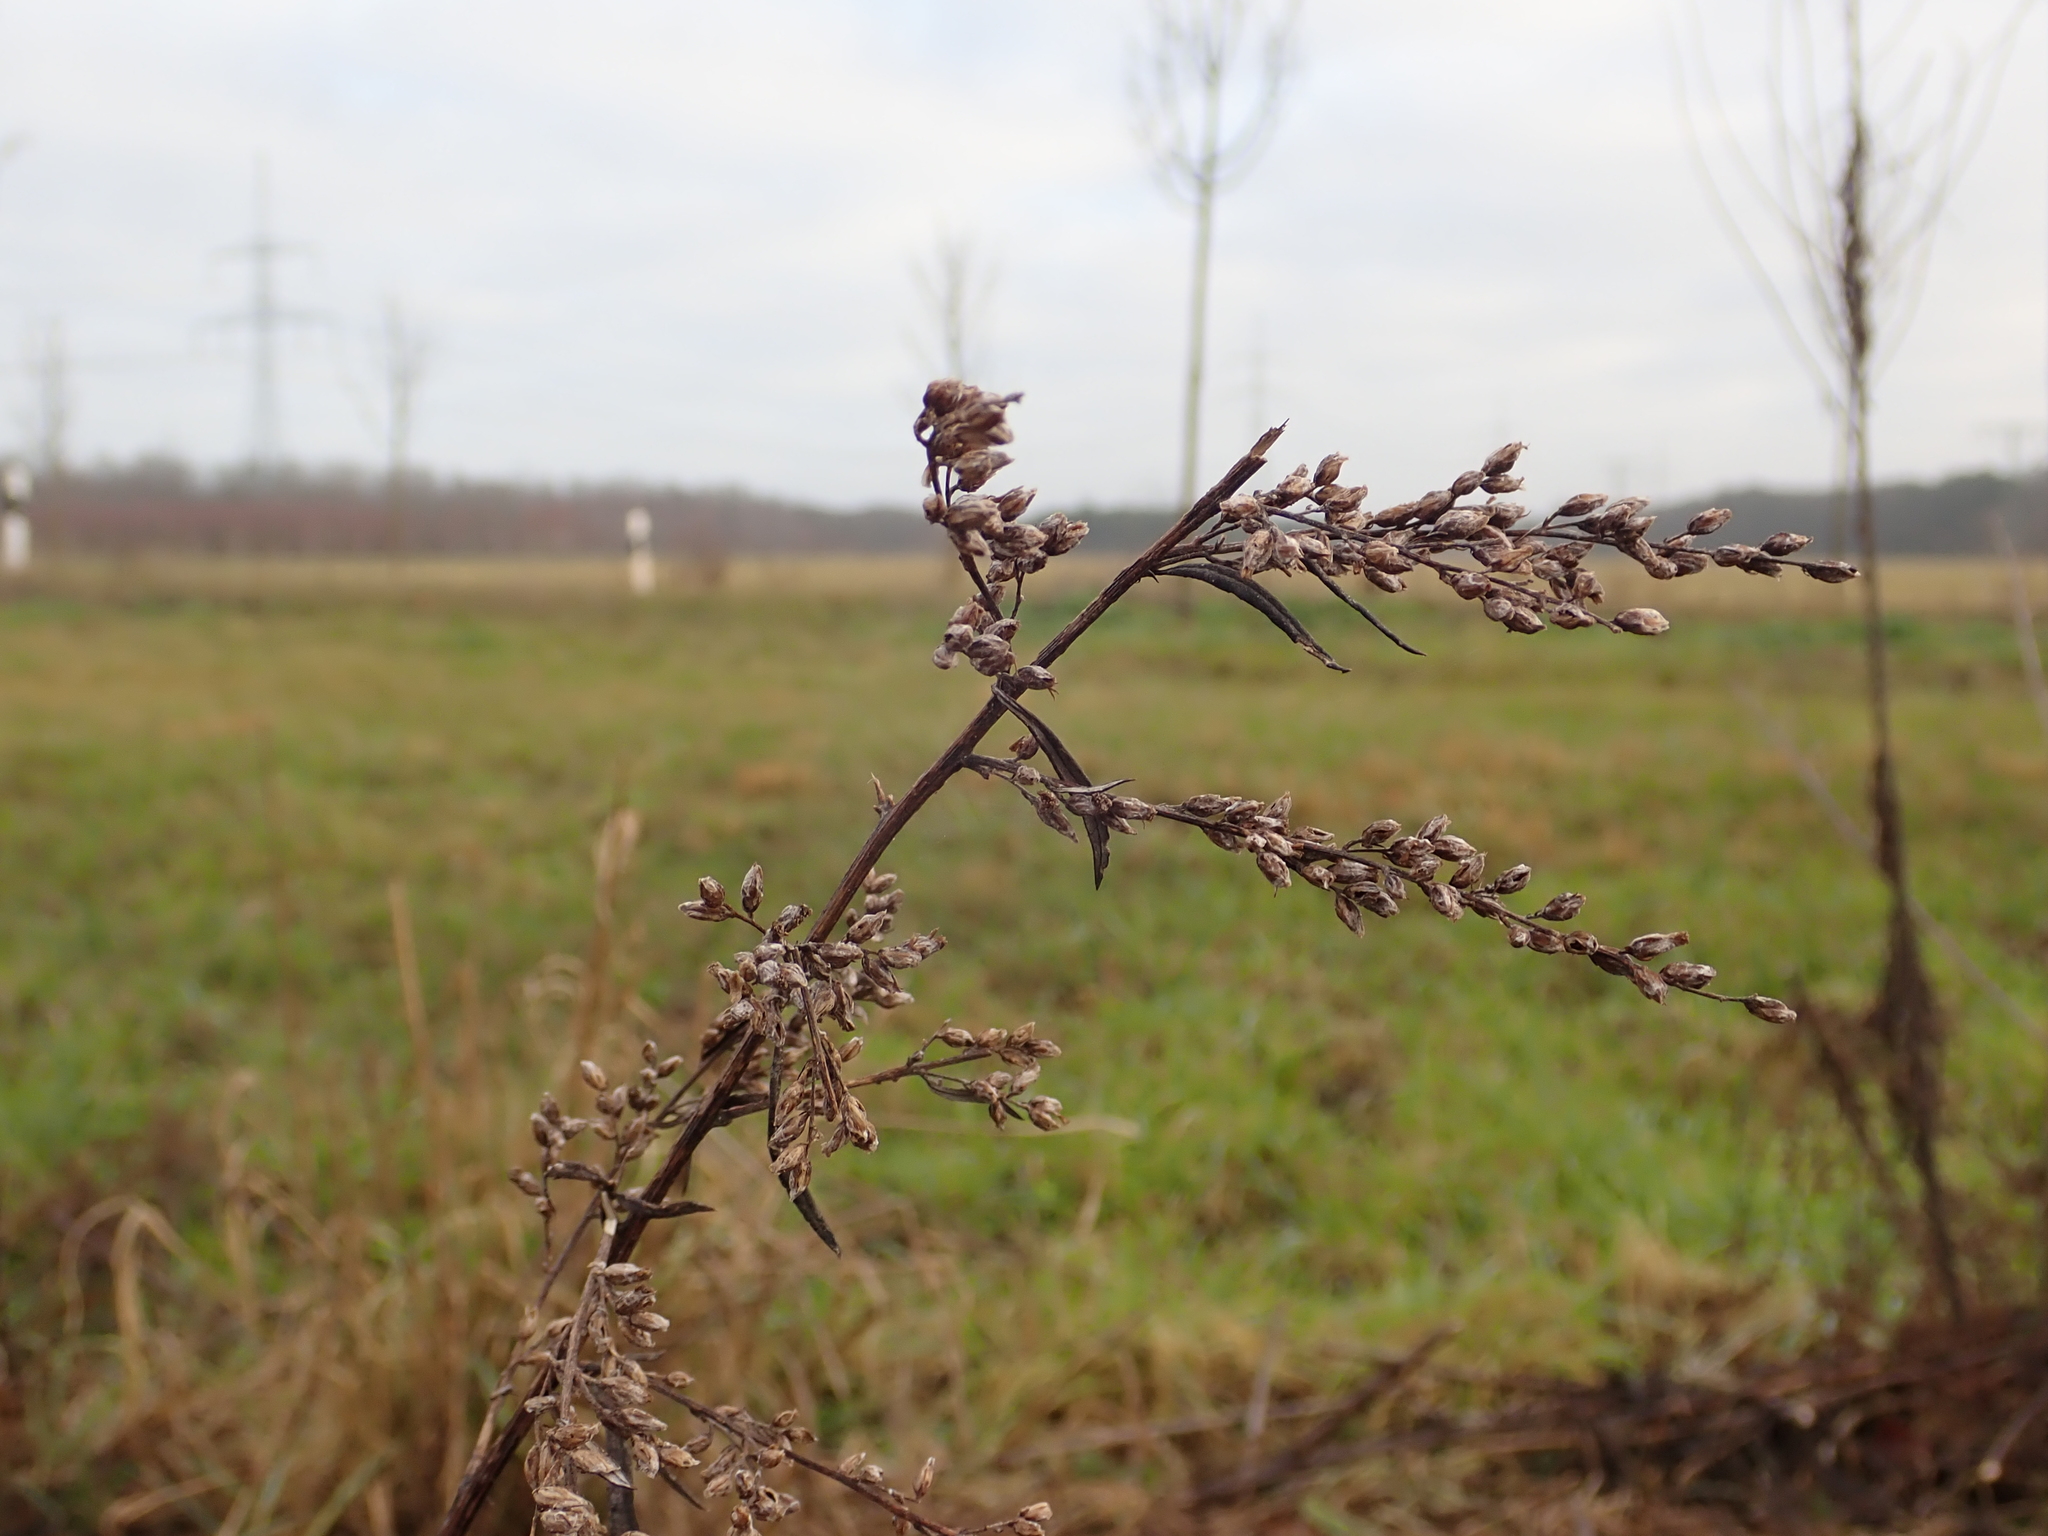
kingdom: Plantae
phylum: Tracheophyta
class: Magnoliopsida
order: Asterales
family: Asteraceae
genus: Artemisia
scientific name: Artemisia vulgaris
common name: Mugwort
